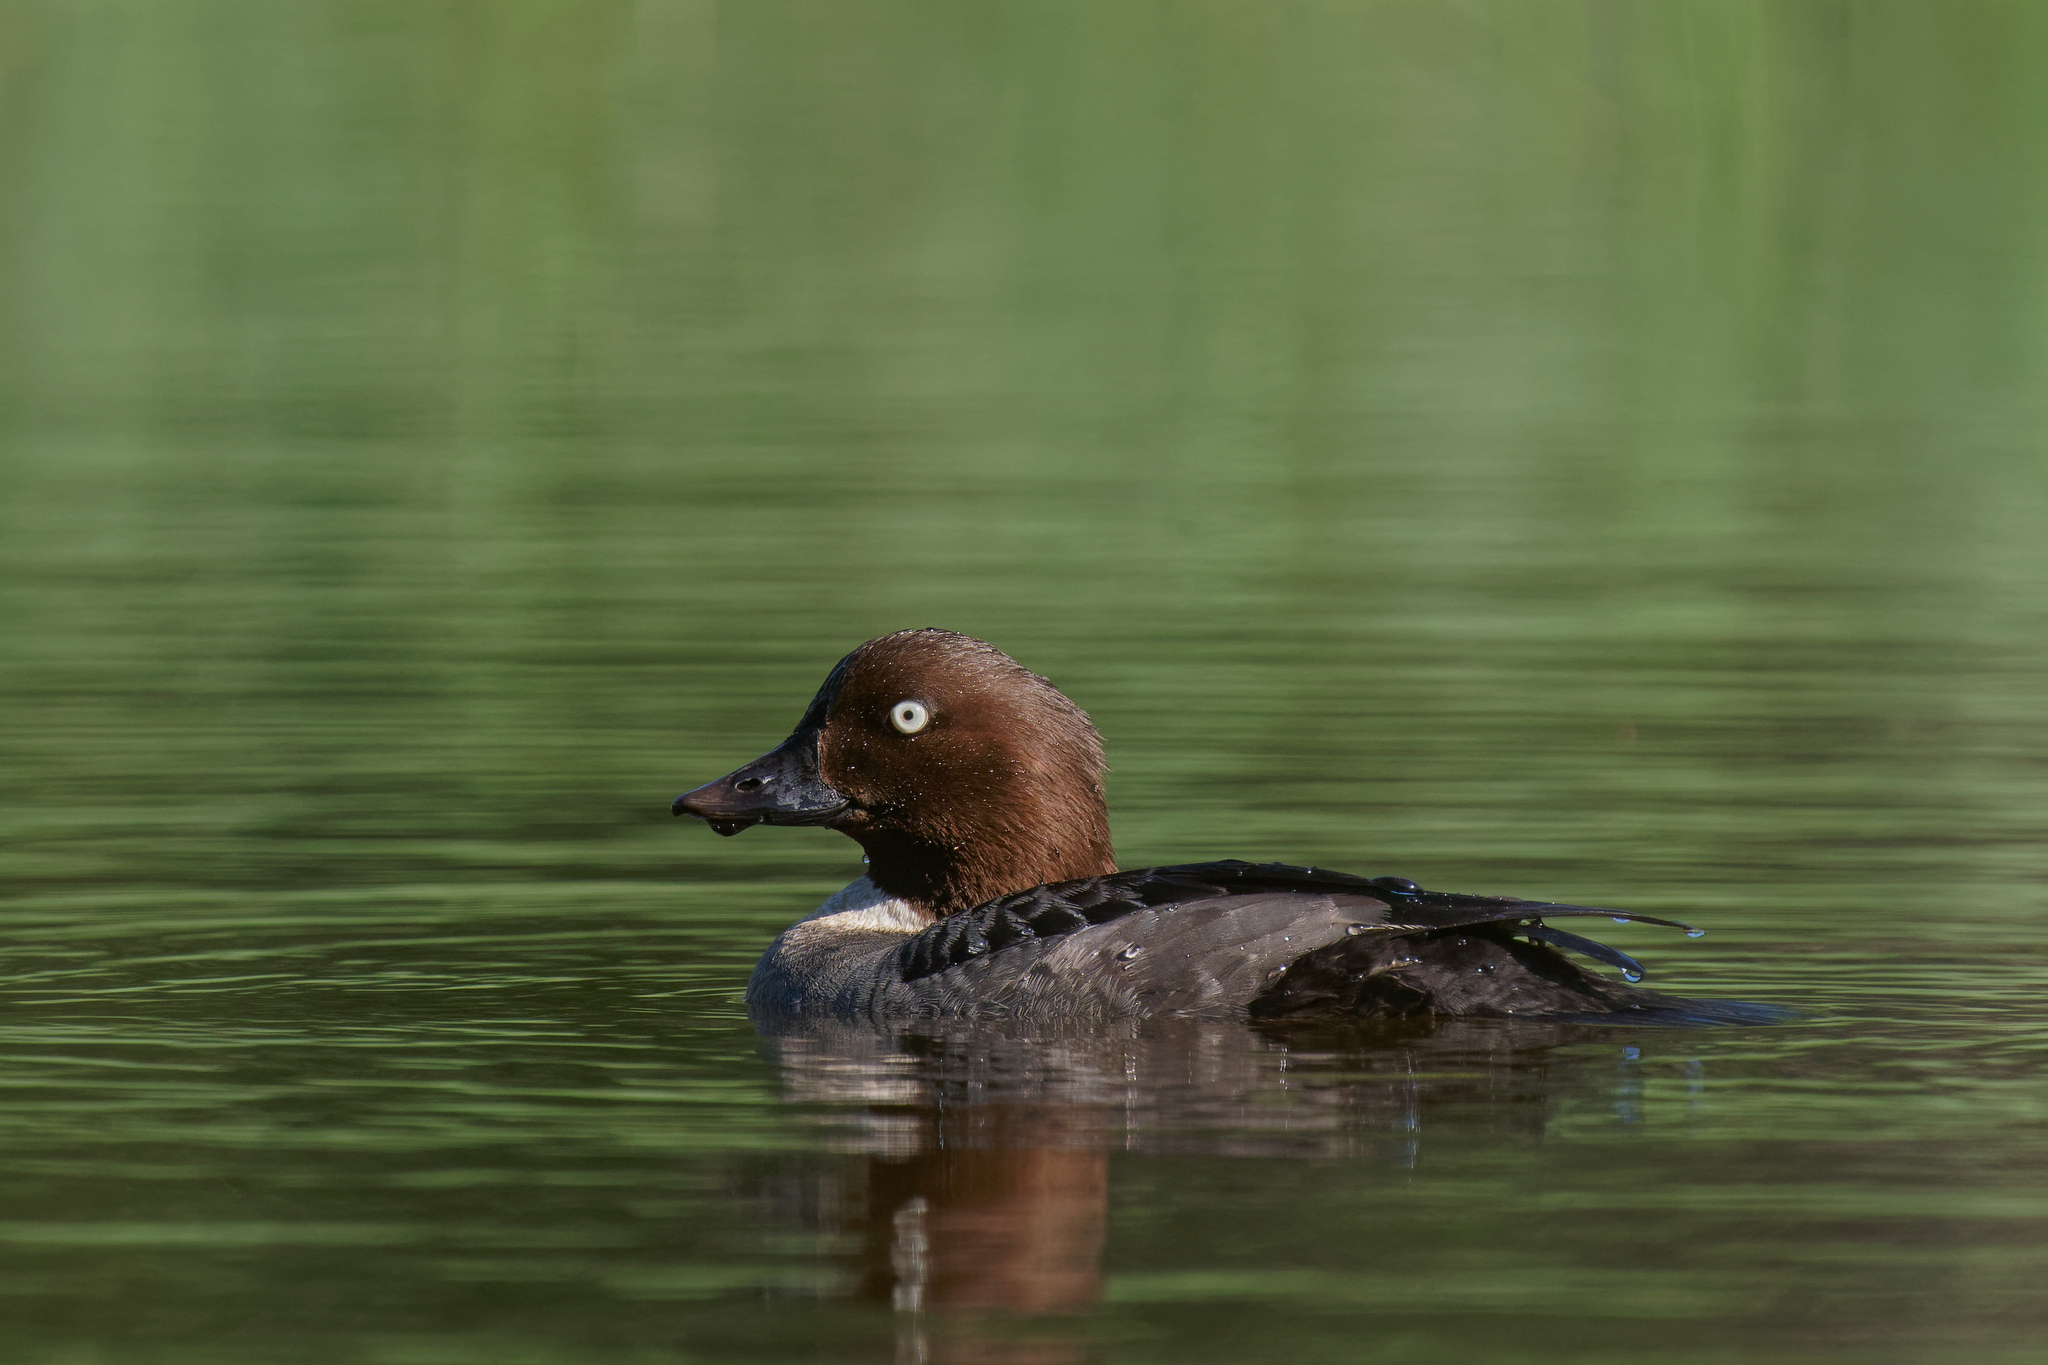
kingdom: Animalia
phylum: Chordata
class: Aves
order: Anseriformes
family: Anatidae
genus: Bucephala
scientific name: Bucephala clangula
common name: Common goldeneye
